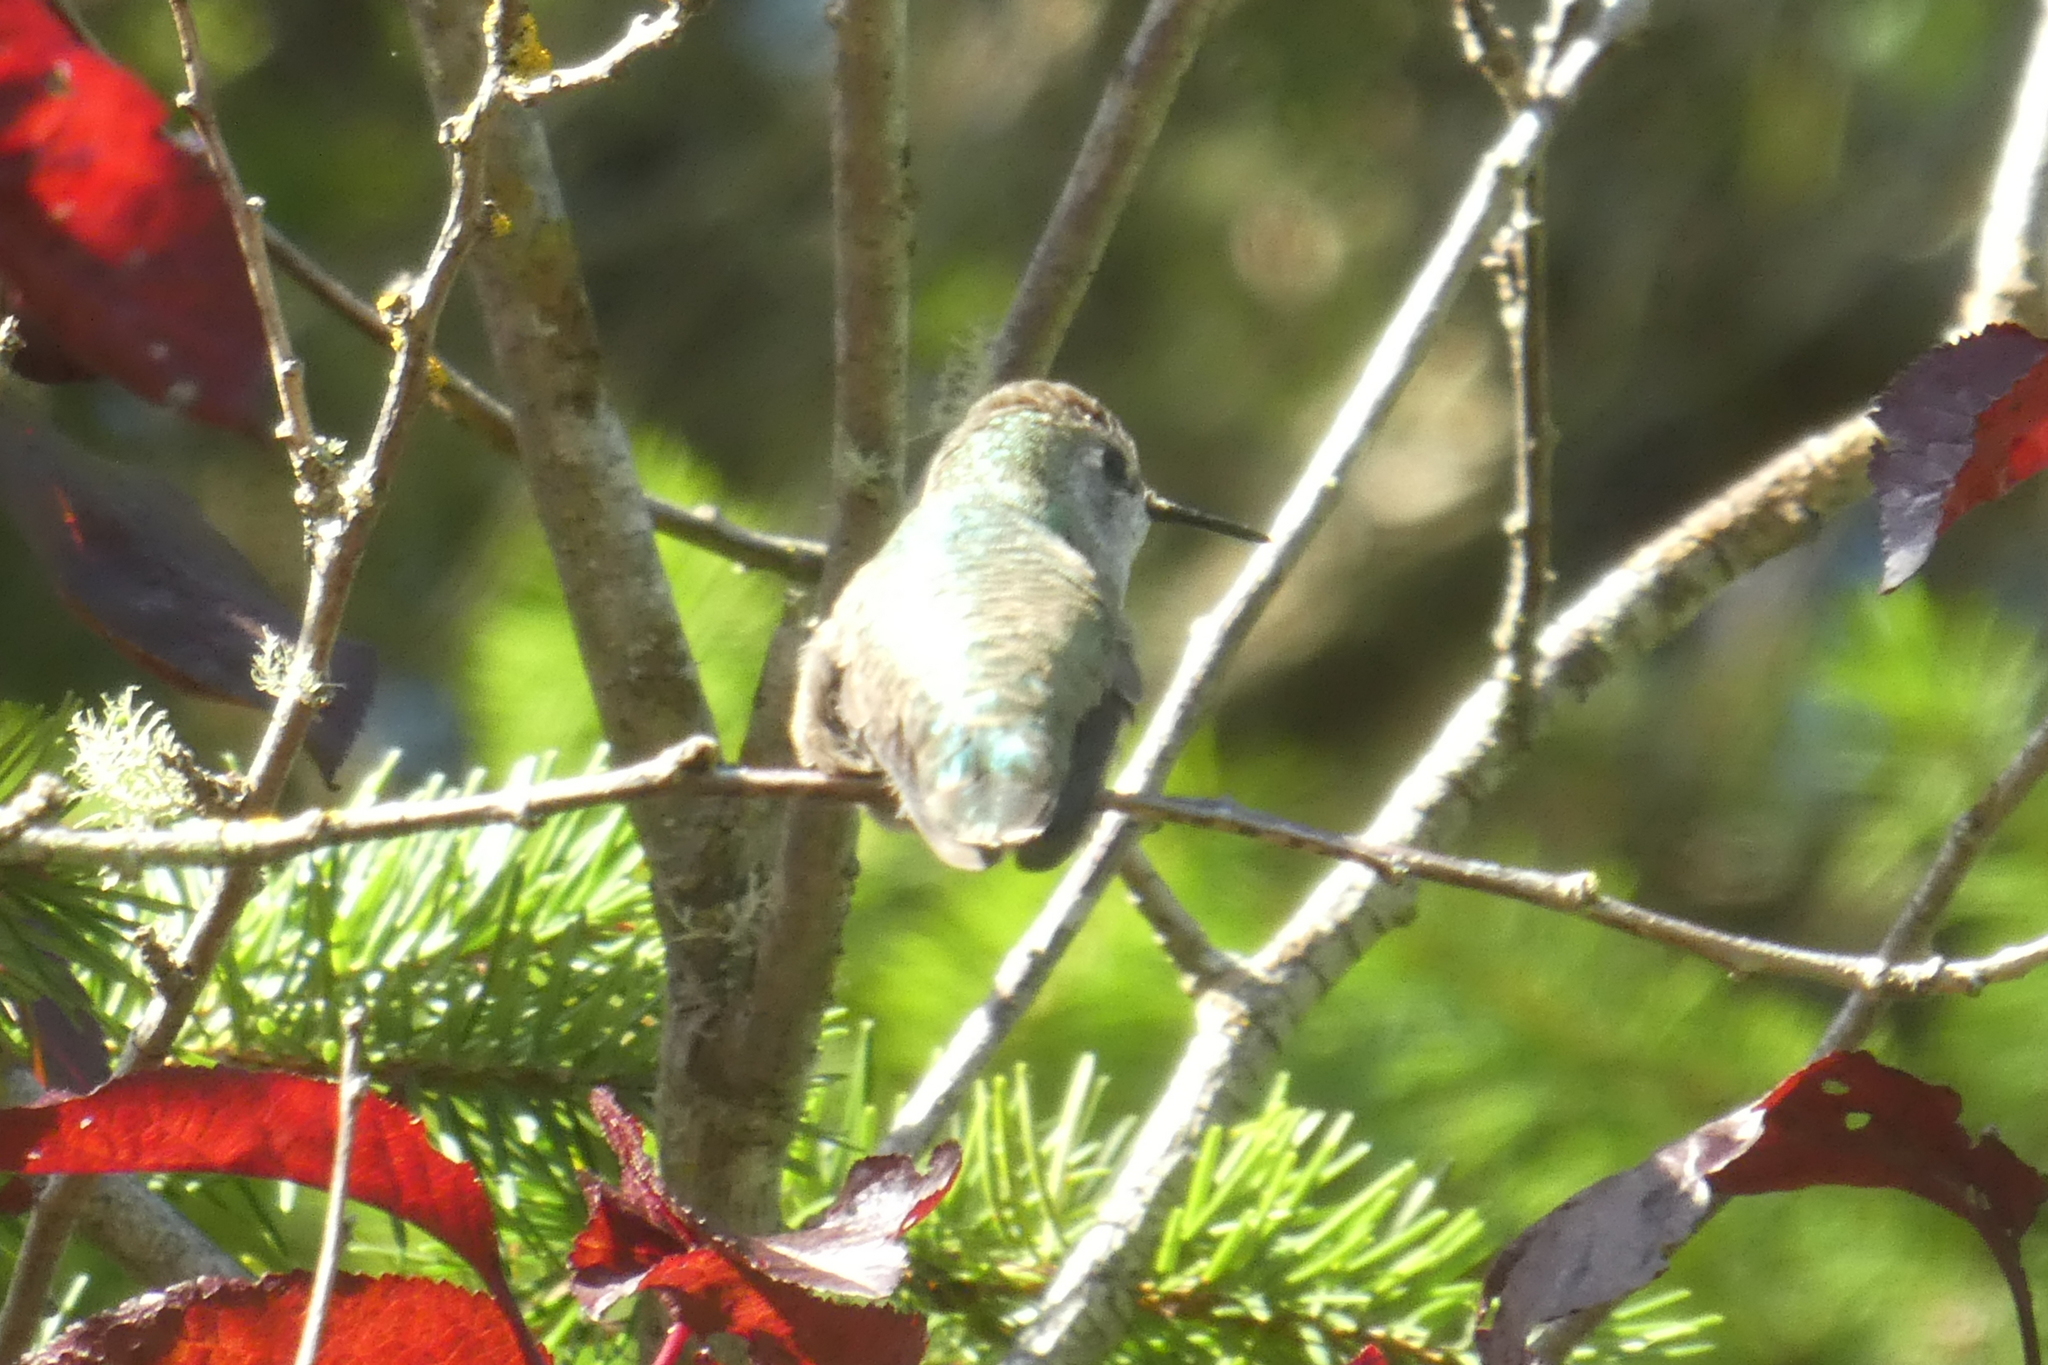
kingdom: Animalia
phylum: Chordata
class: Aves
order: Apodiformes
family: Trochilidae
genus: Calypte
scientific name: Calypte anna
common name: Anna's hummingbird
